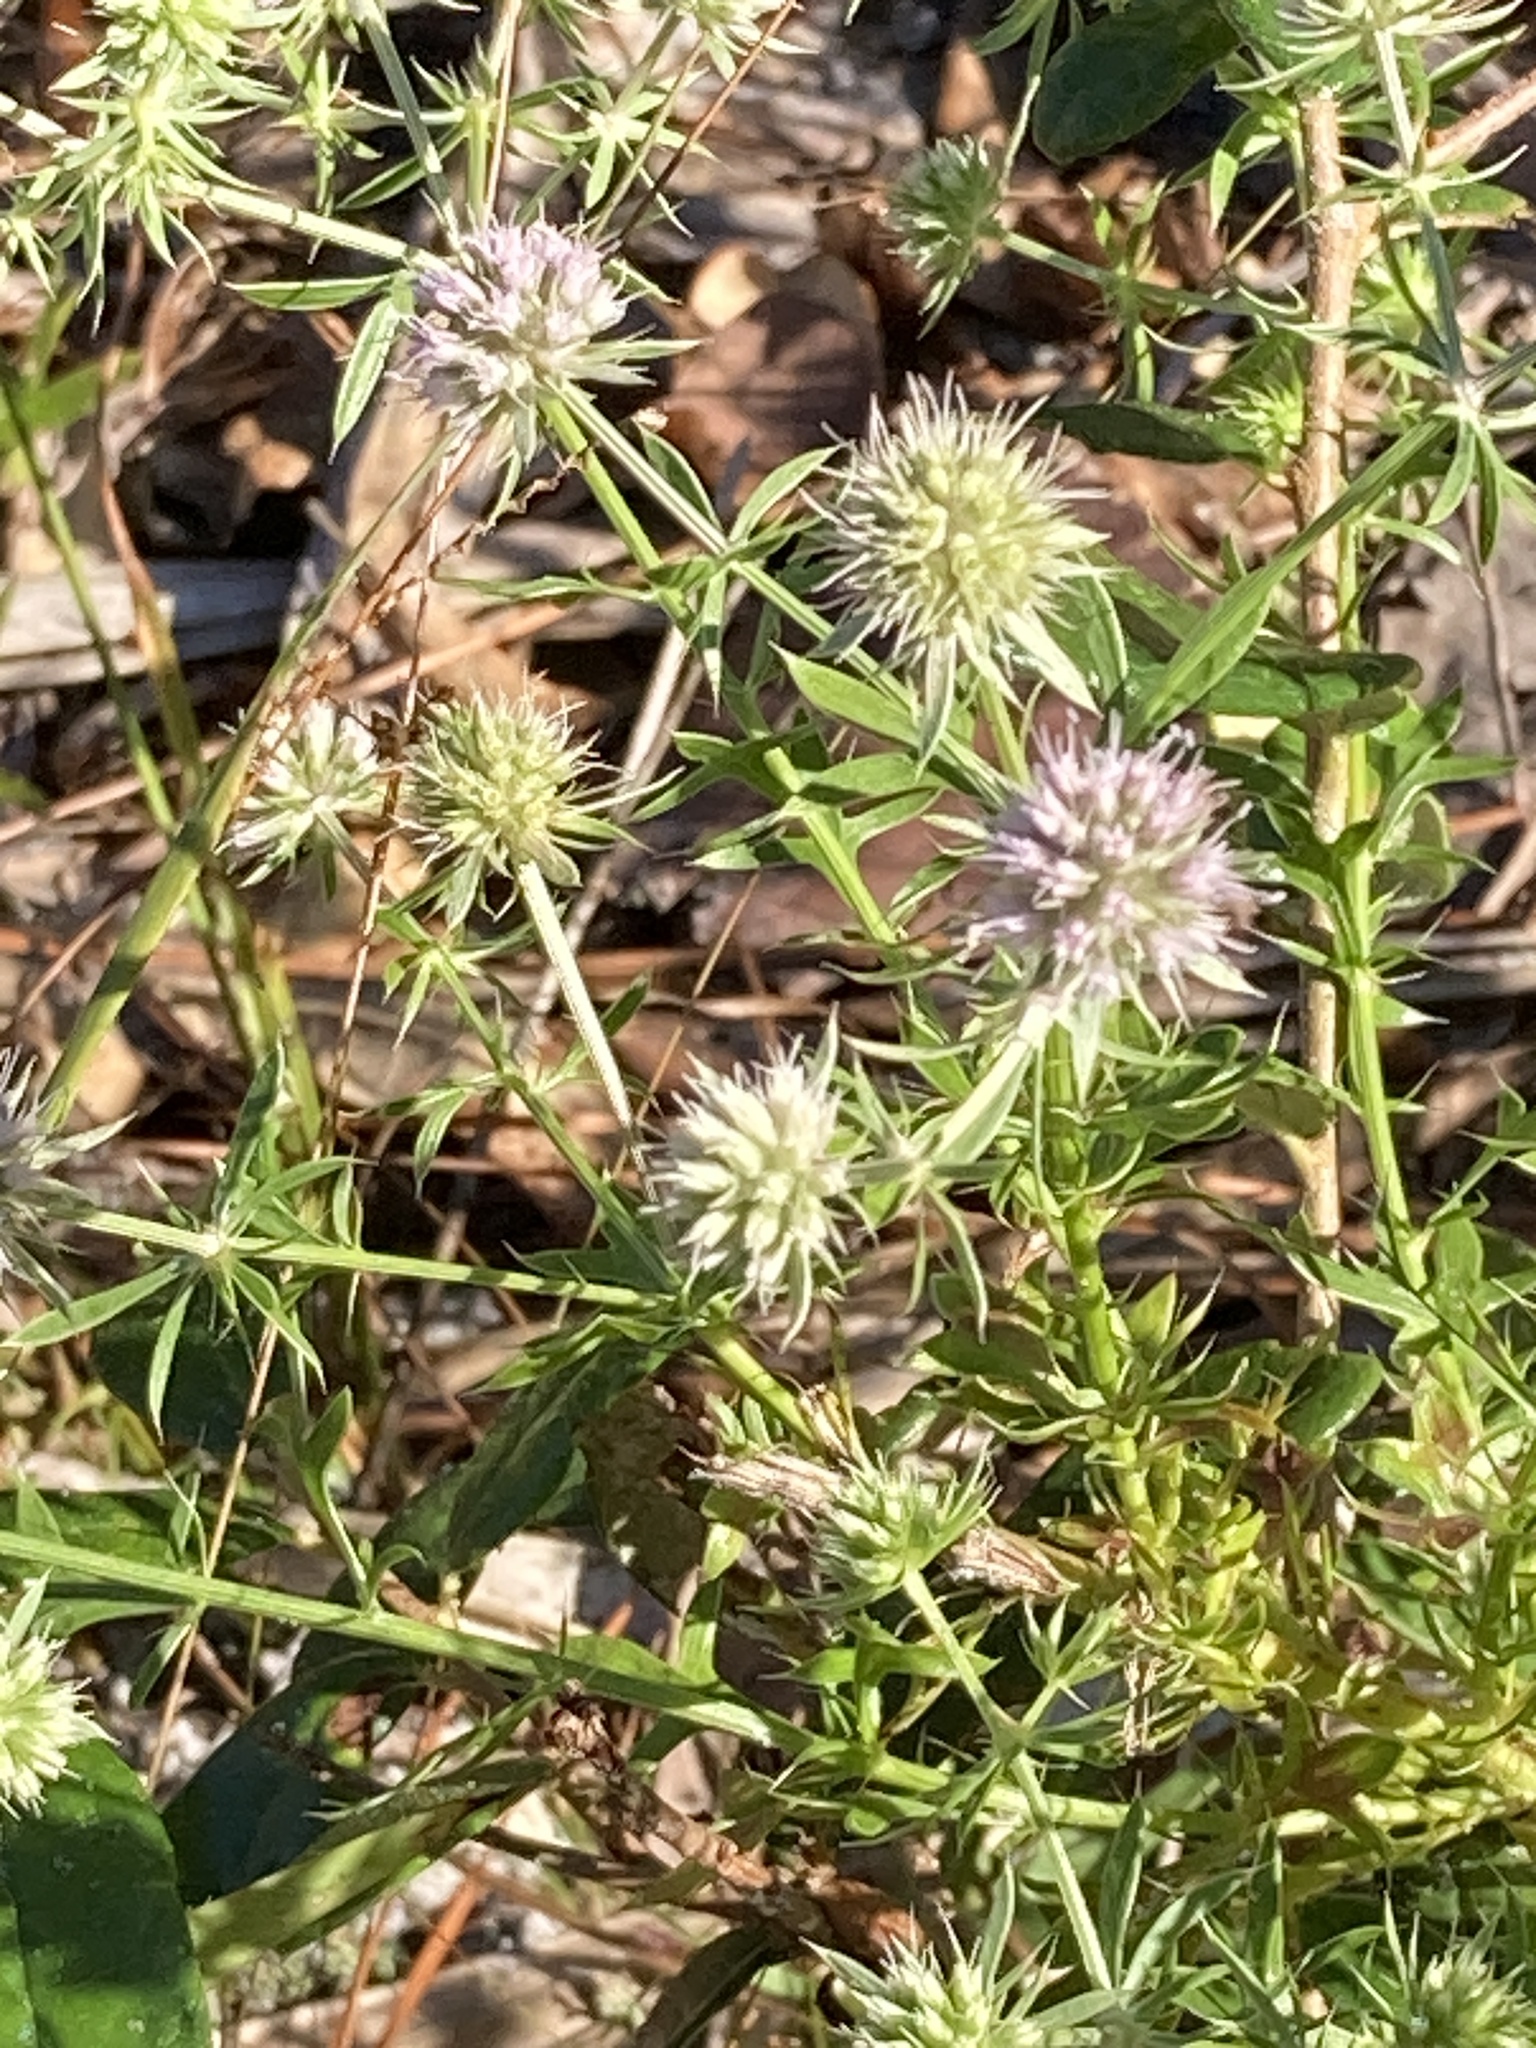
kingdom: Plantae
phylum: Tracheophyta
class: Magnoliopsida
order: Apiales
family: Apiaceae
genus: Eryngium
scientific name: Eryngium aromaticum
